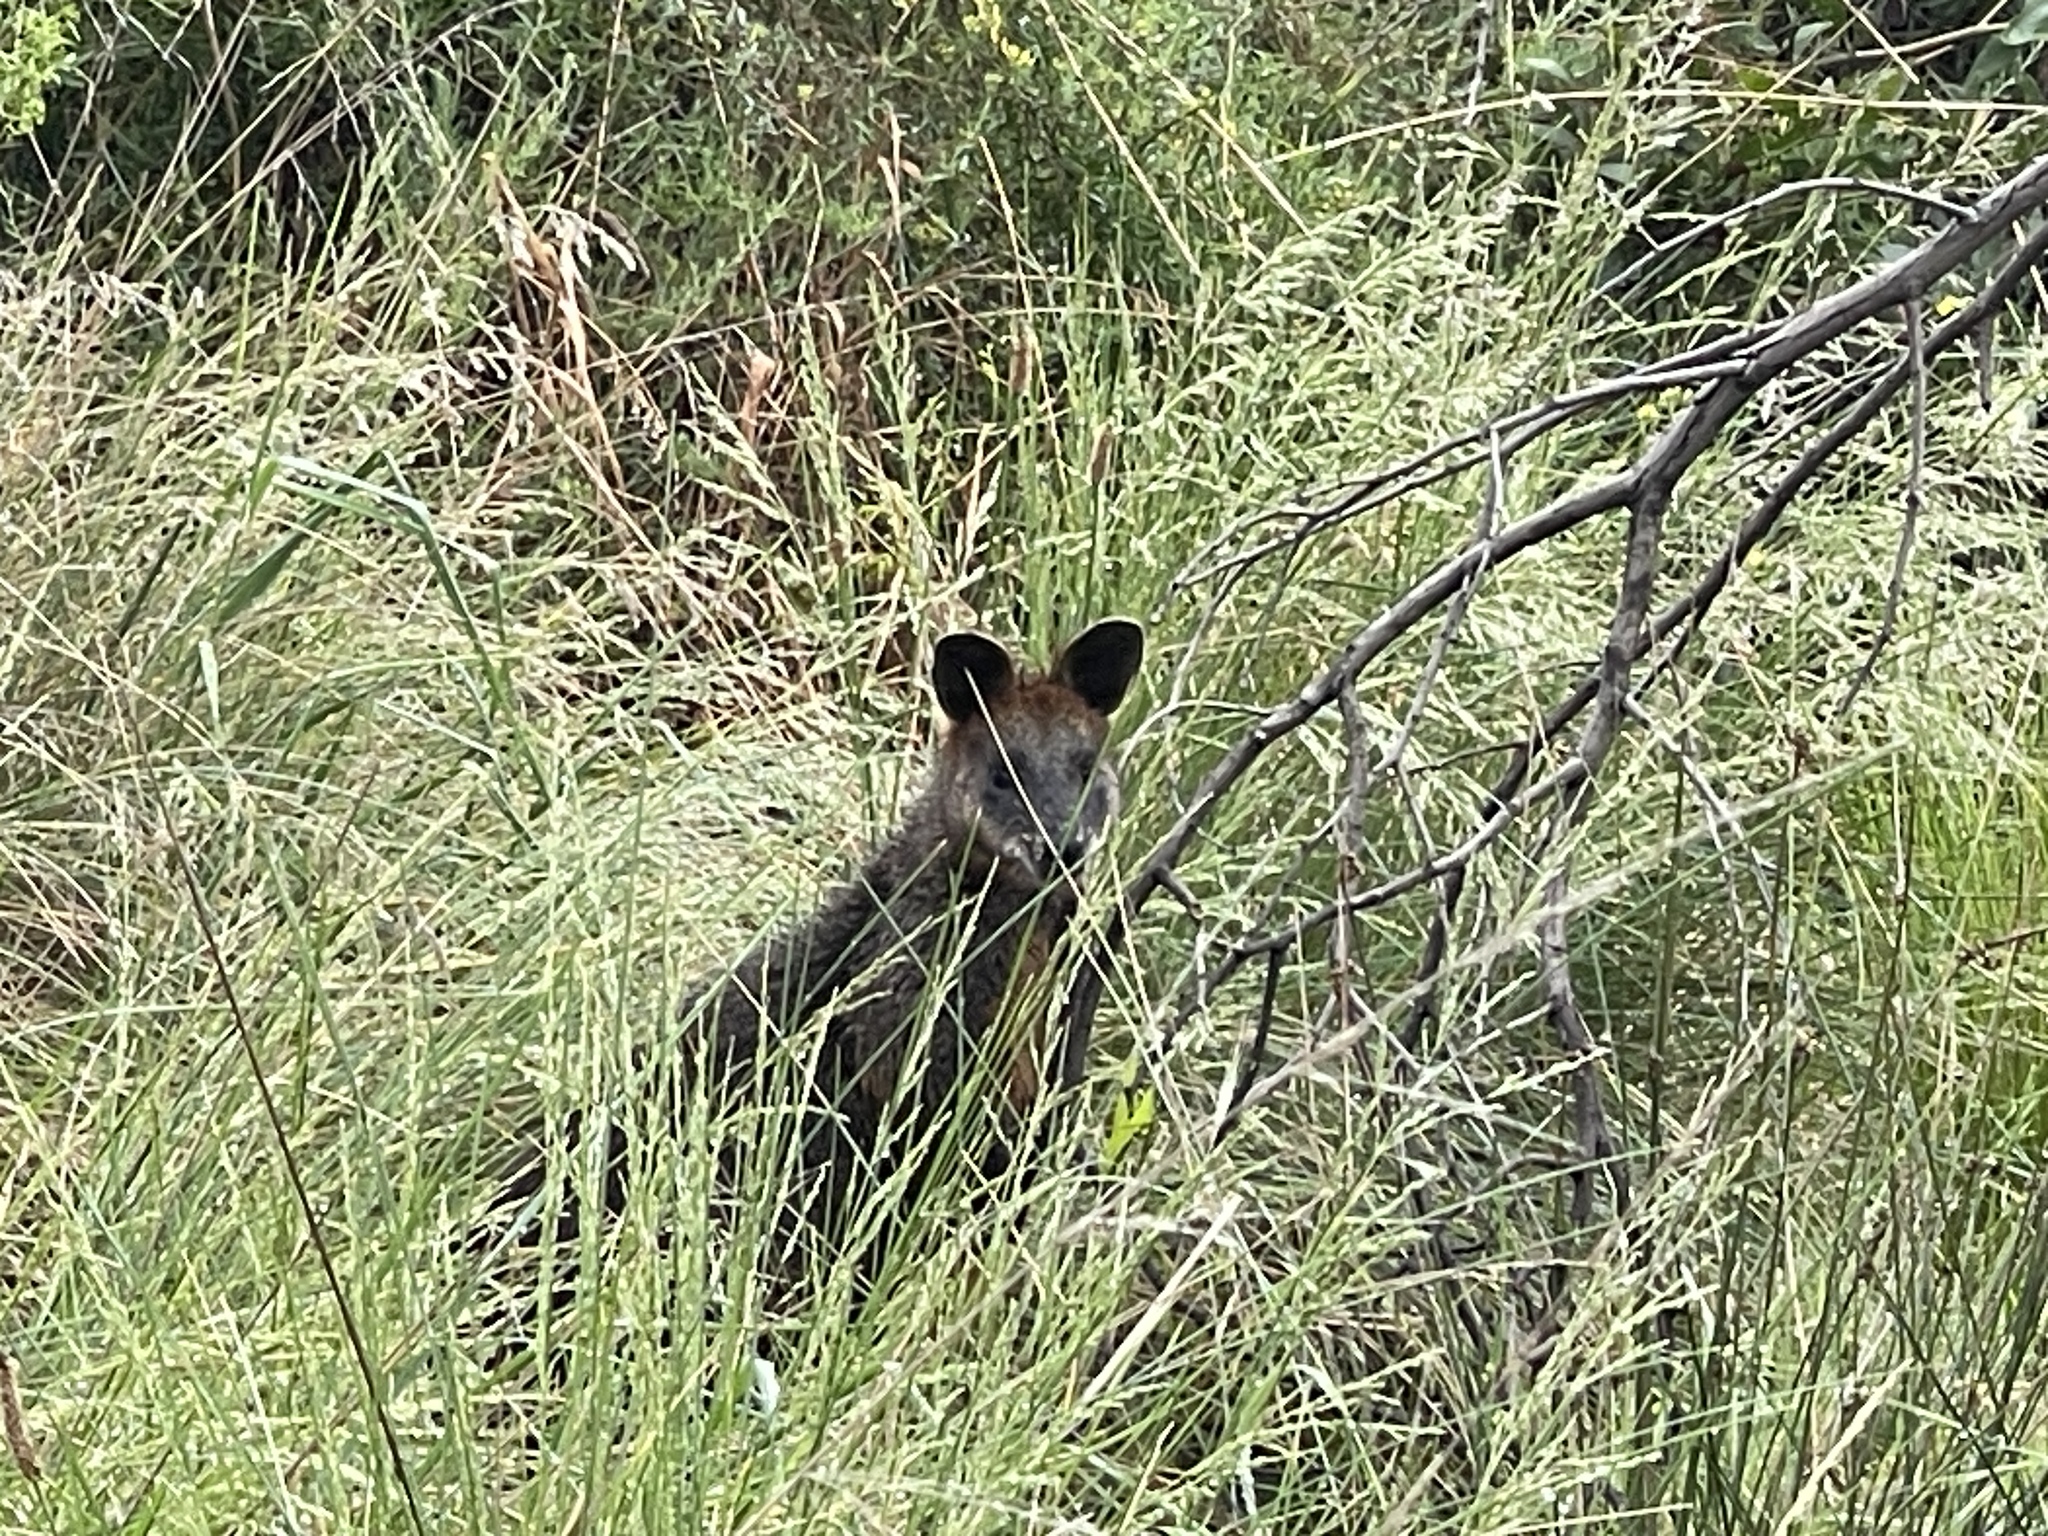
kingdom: Animalia
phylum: Chordata
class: Mammalia
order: Diprotodontia
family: Macropodidae
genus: Wallabia
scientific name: Wallabia bicolor
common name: Swamp wallaby
